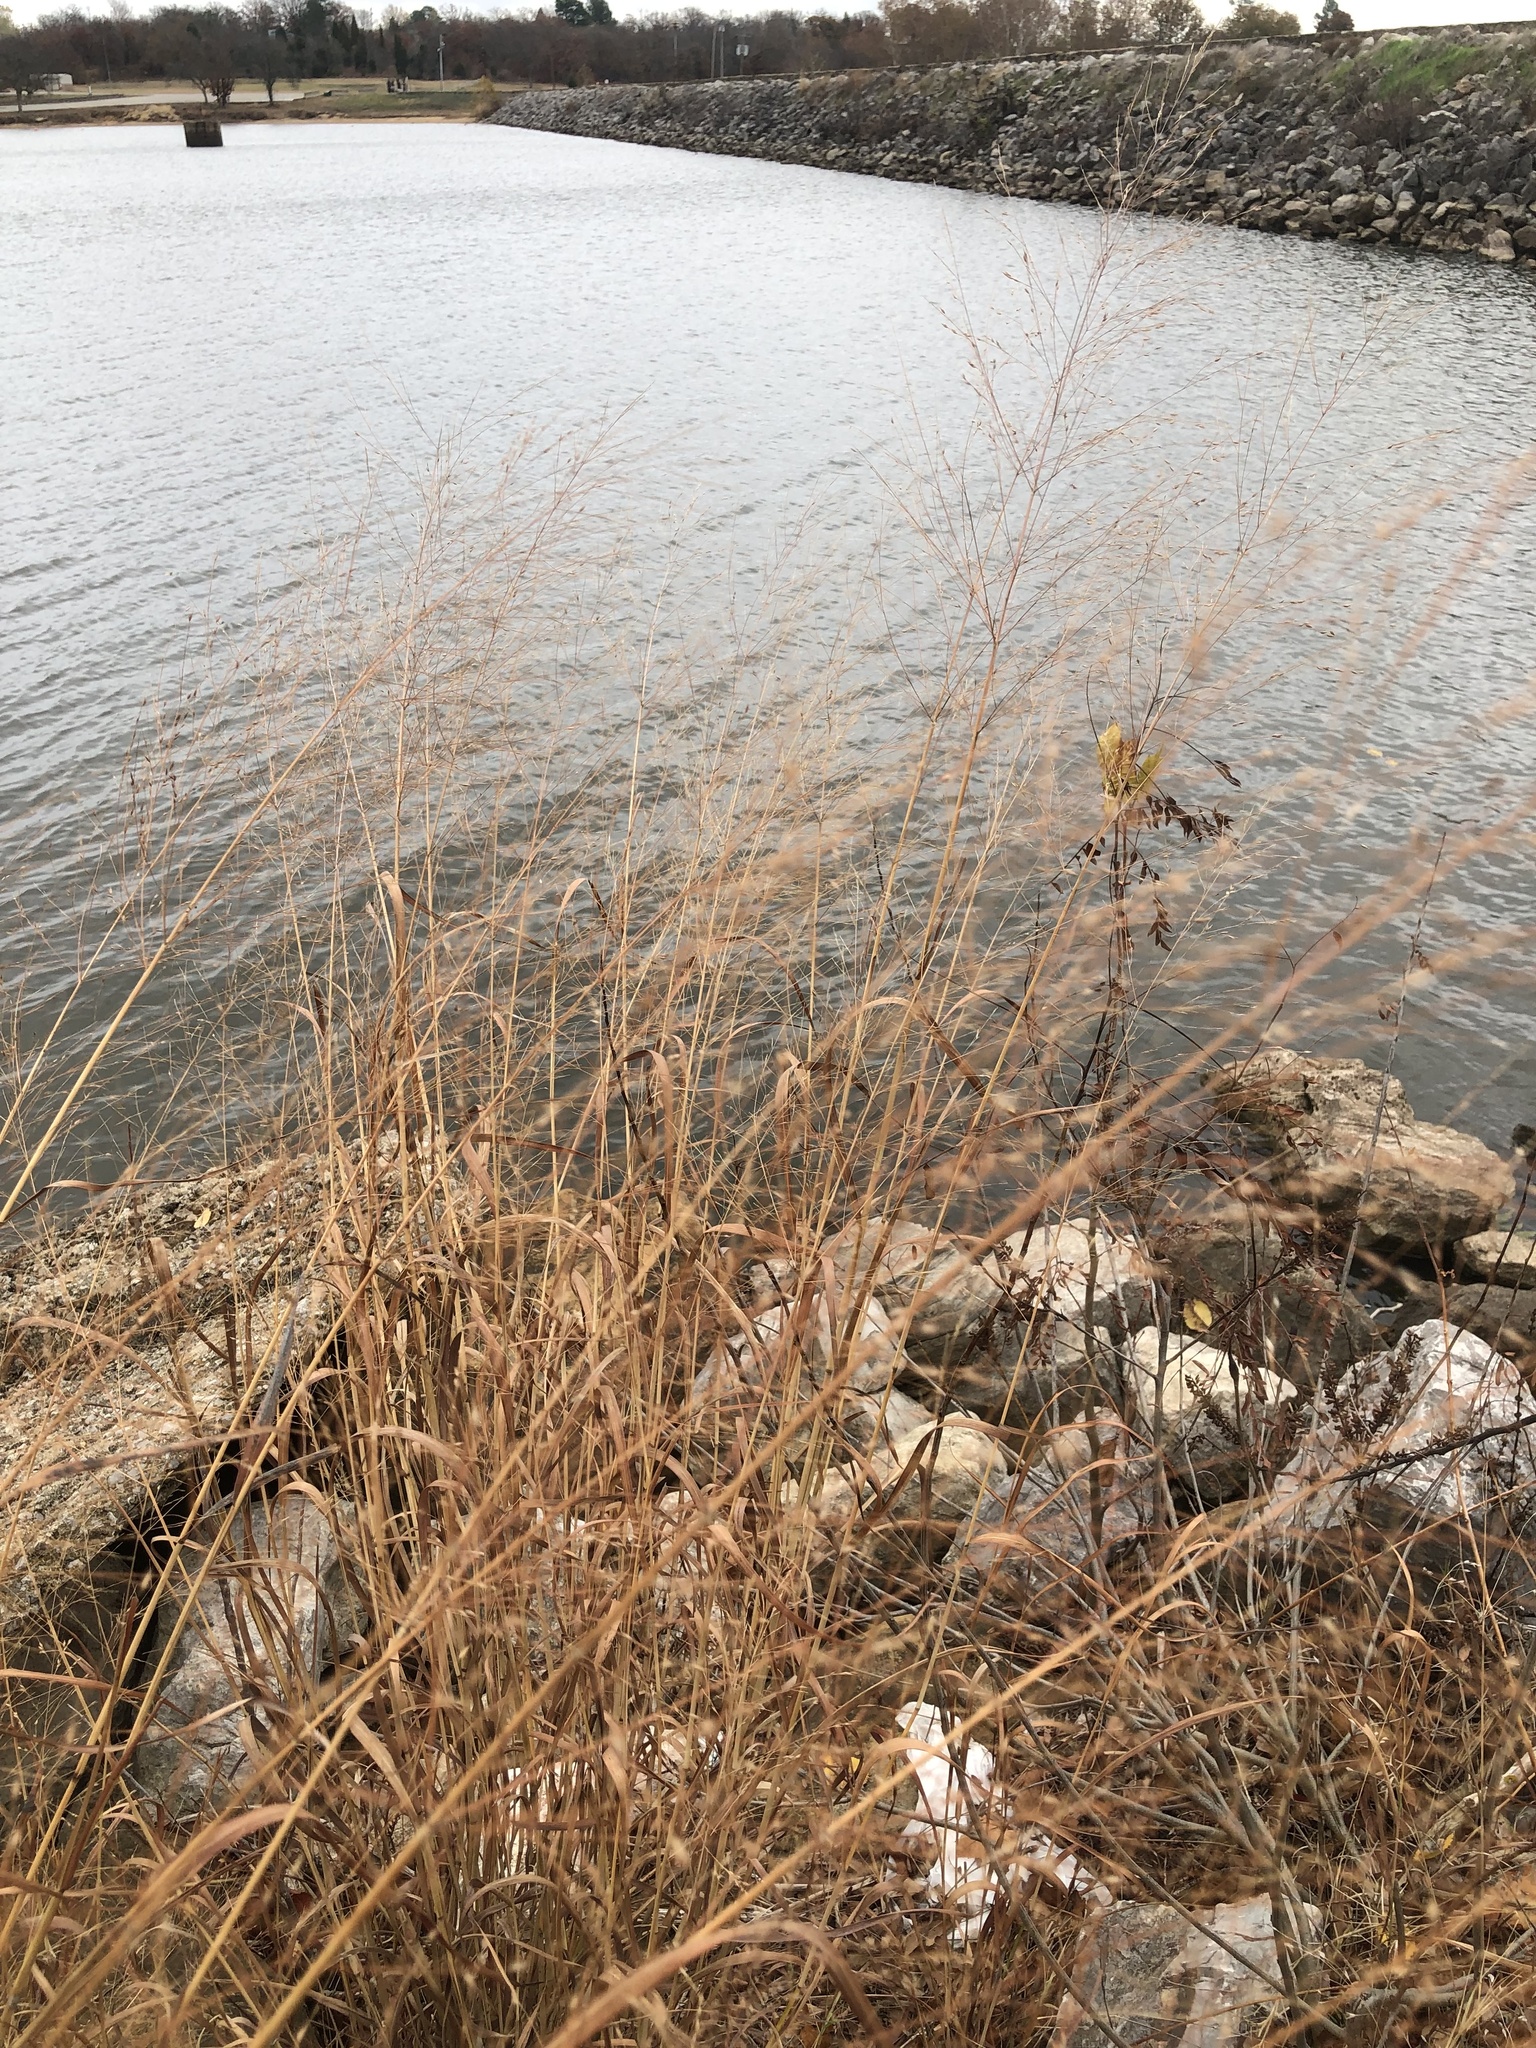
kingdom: Plantae
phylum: Tracheophyta
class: Liliopsida
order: Poales
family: Poaceae
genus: Panicum
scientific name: Panicum virgatum
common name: Switchgrass
